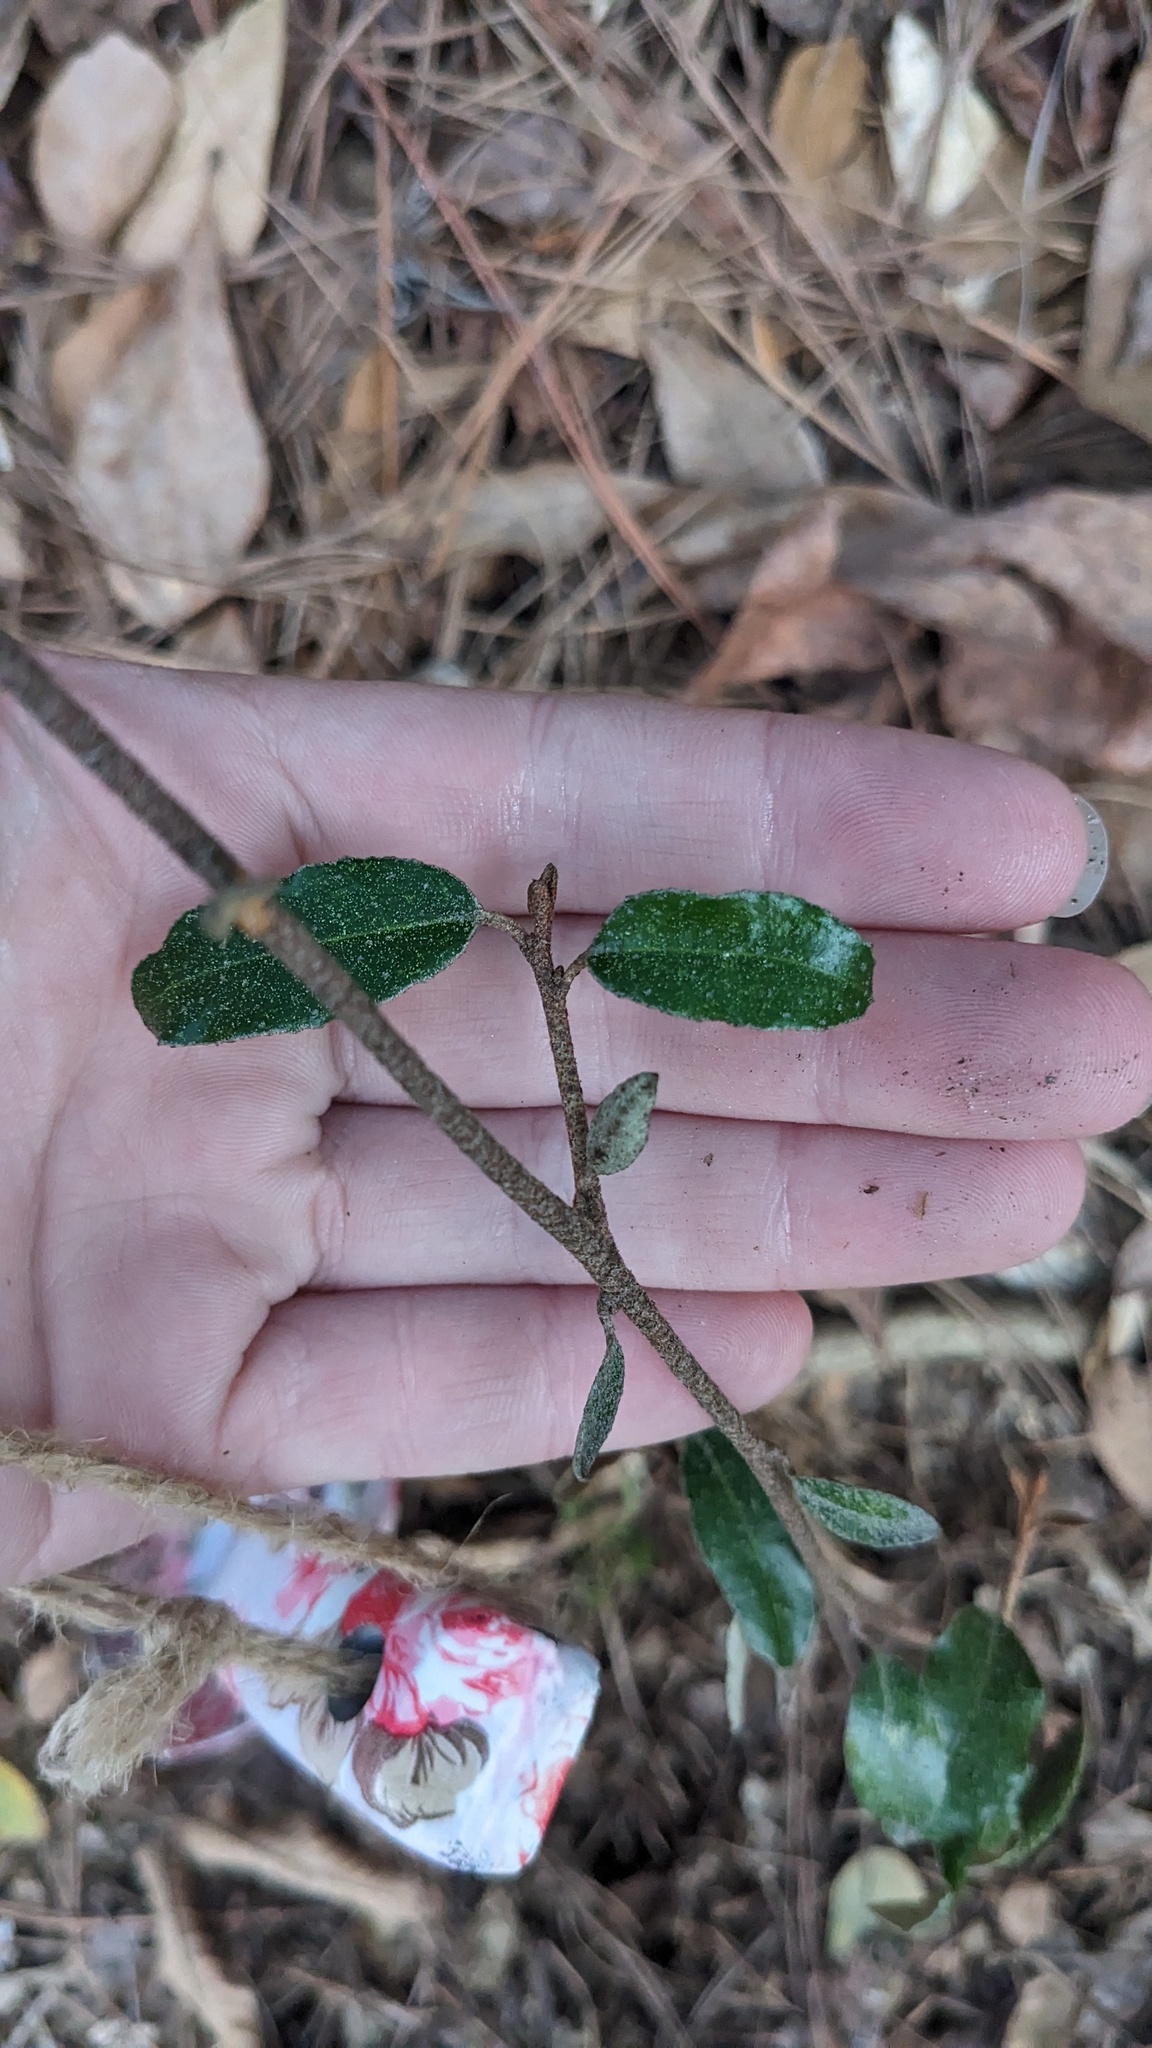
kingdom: Plantae
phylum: Tracheophyta
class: Magnoliopsida
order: Rosales
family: Elaeagnaceae
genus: Elaeagnus
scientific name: Elaeagnus pungens
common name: Spiny oleaster
